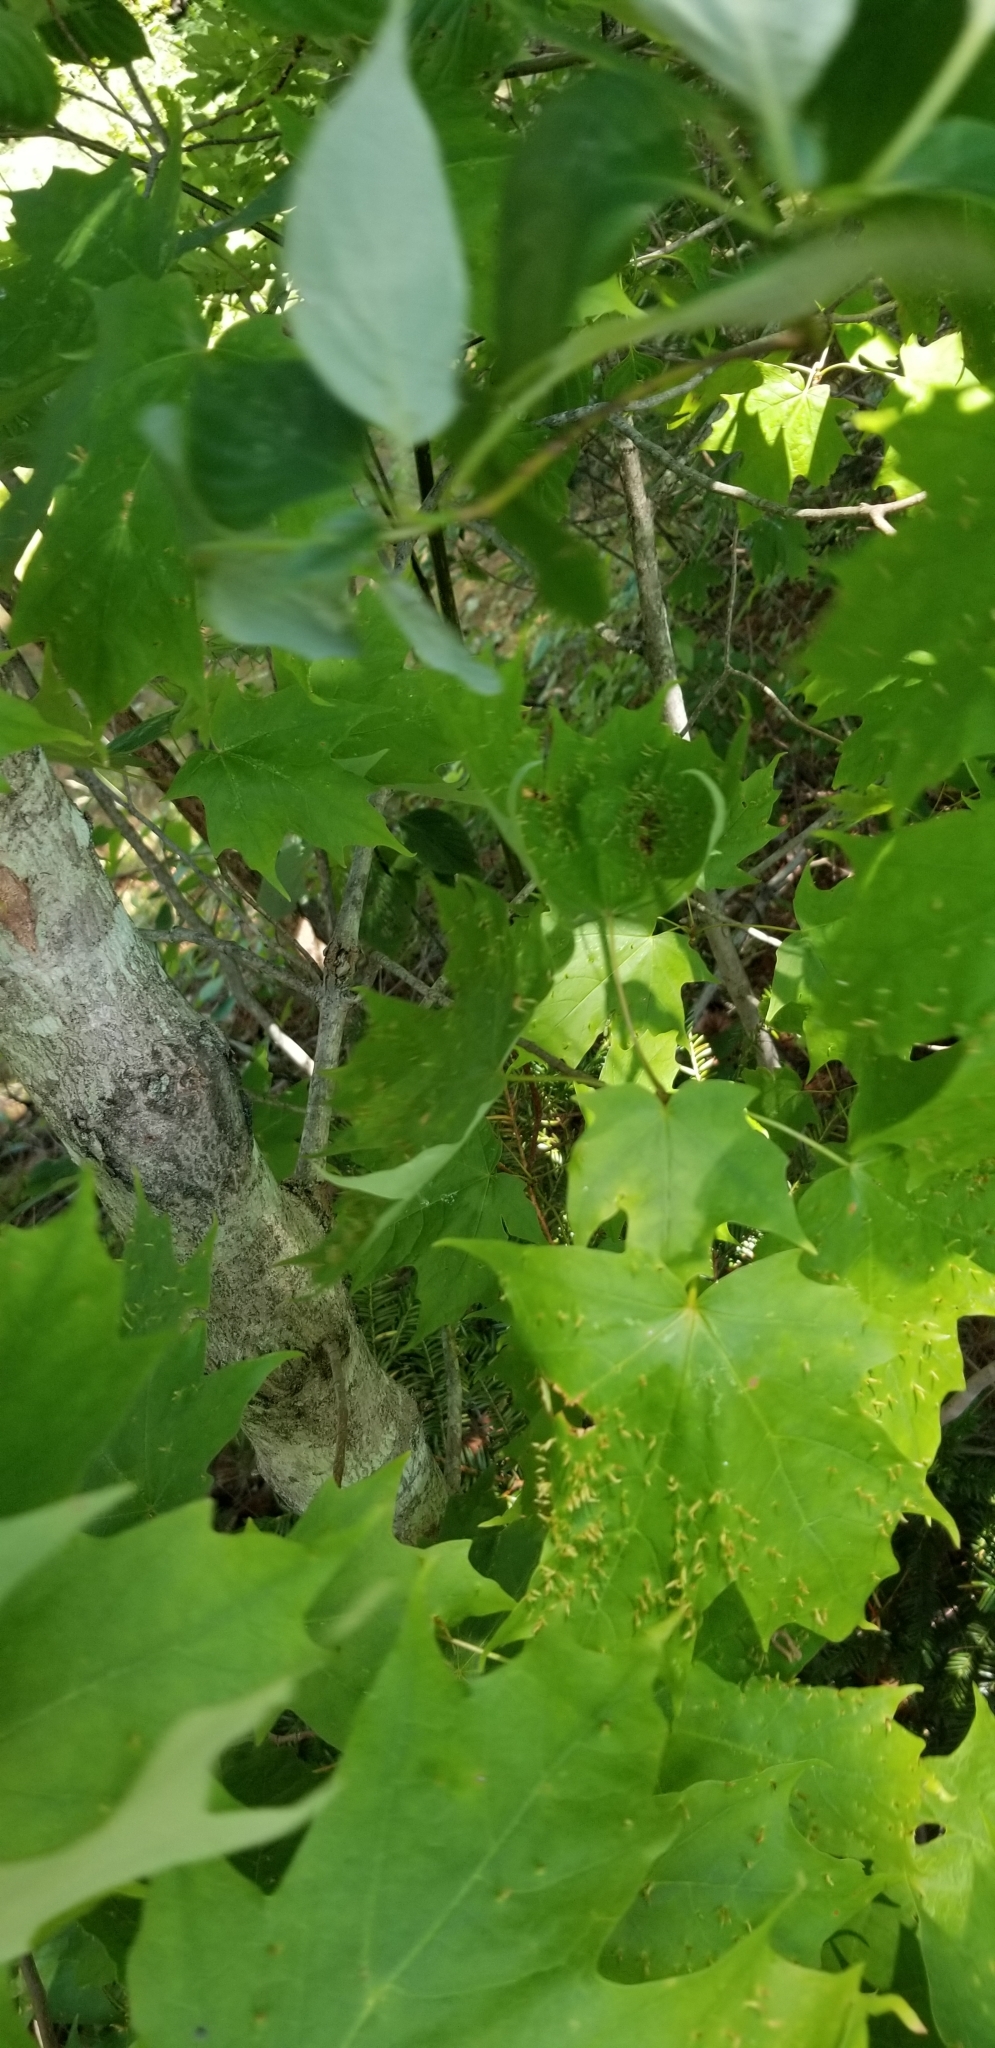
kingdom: Animalia
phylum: Arthropoda
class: Arachnida
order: Trombidiformes
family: Eriophyidae
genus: Vasates
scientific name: Vasates aceriscrumena
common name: Maple spindle gall mite
